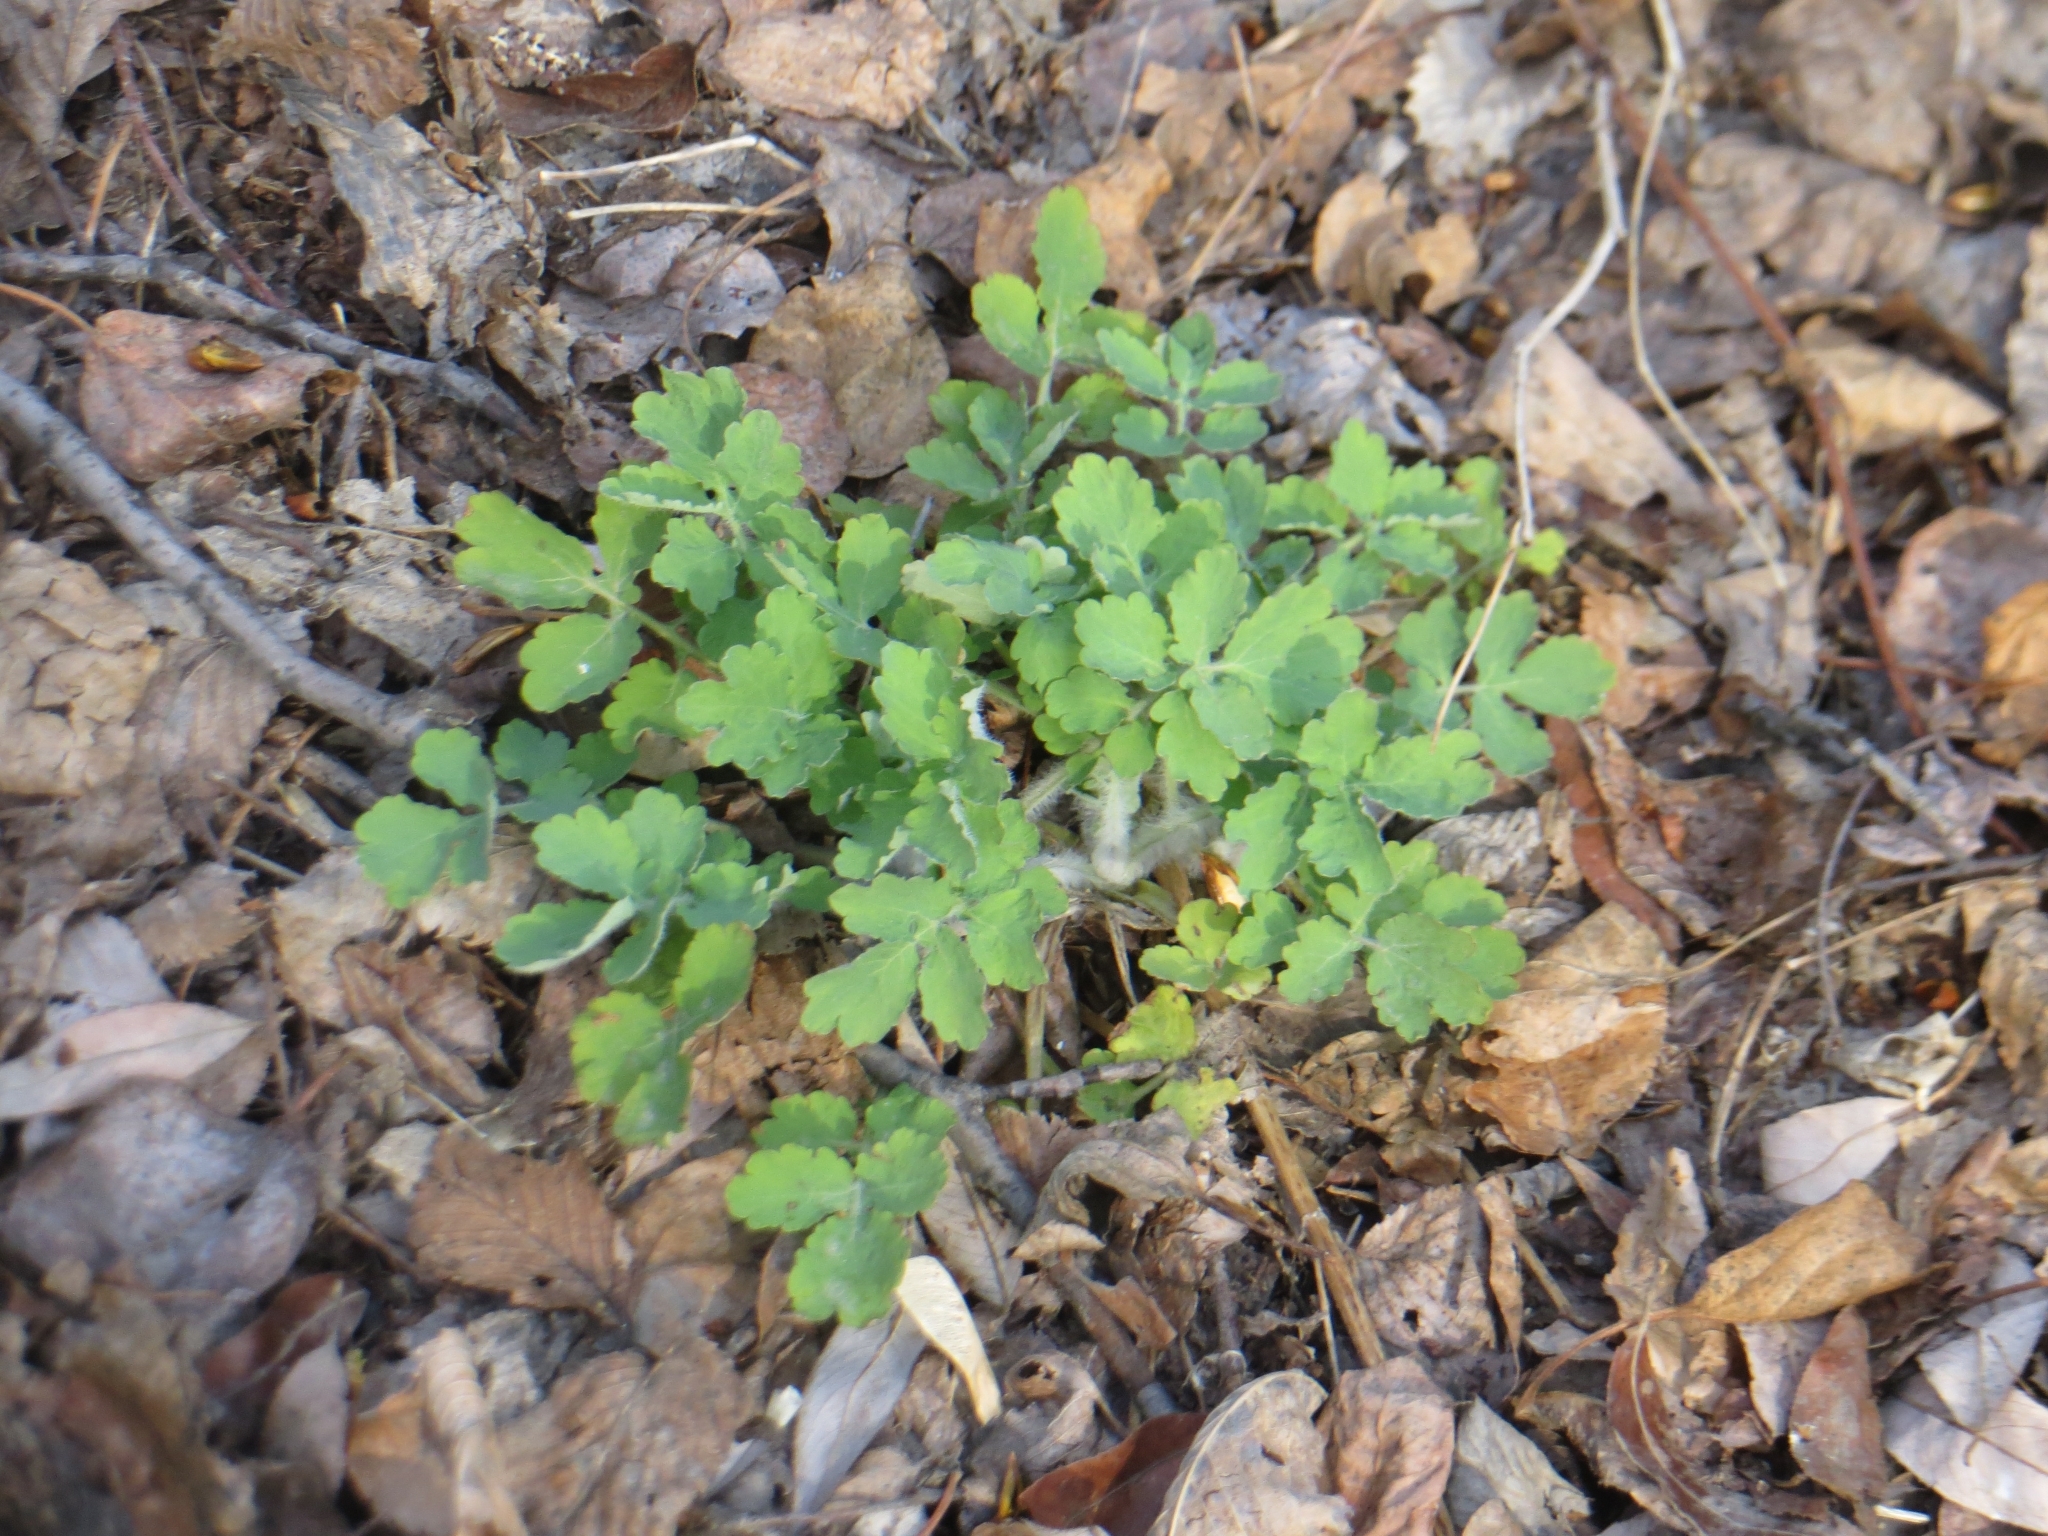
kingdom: Plantae
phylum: Tracheophyta
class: Magnoliopsida
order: Ranunculales
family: Papaveraceae
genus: Chelidonium
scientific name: Chelidonium majus
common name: Greater celandine
